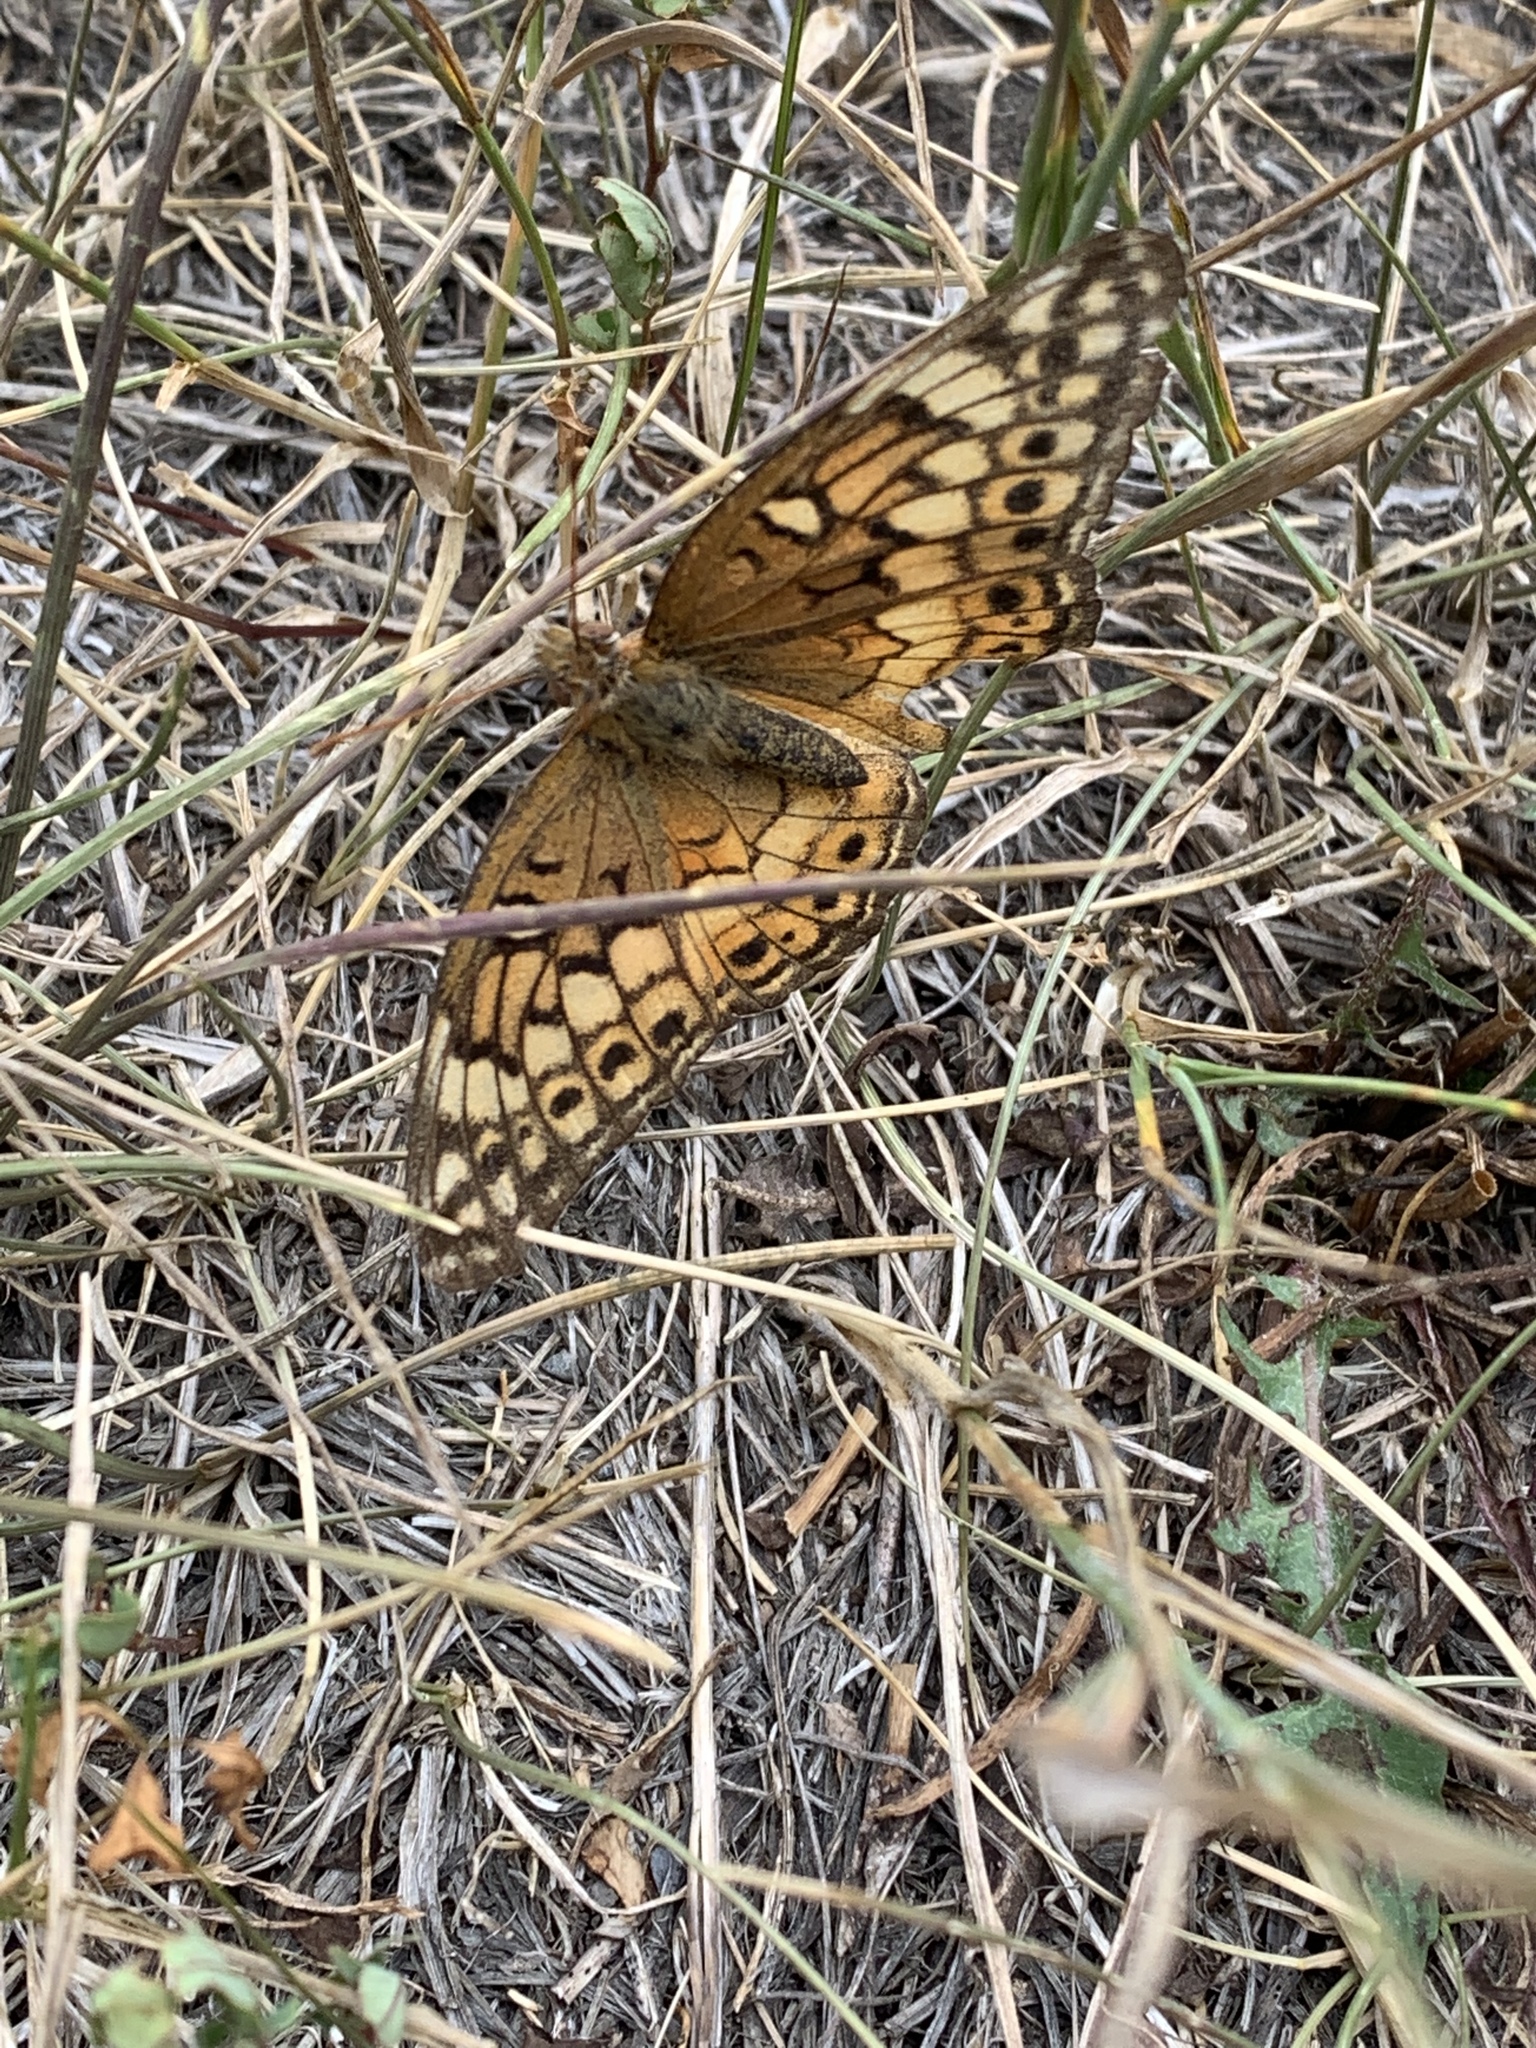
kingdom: Animalia
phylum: Arthropoda
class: Insecta
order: Lepidoptera
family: Nymphalidae
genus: Euptoieta
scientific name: Euptoieta claudia
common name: Variegated fritillary
